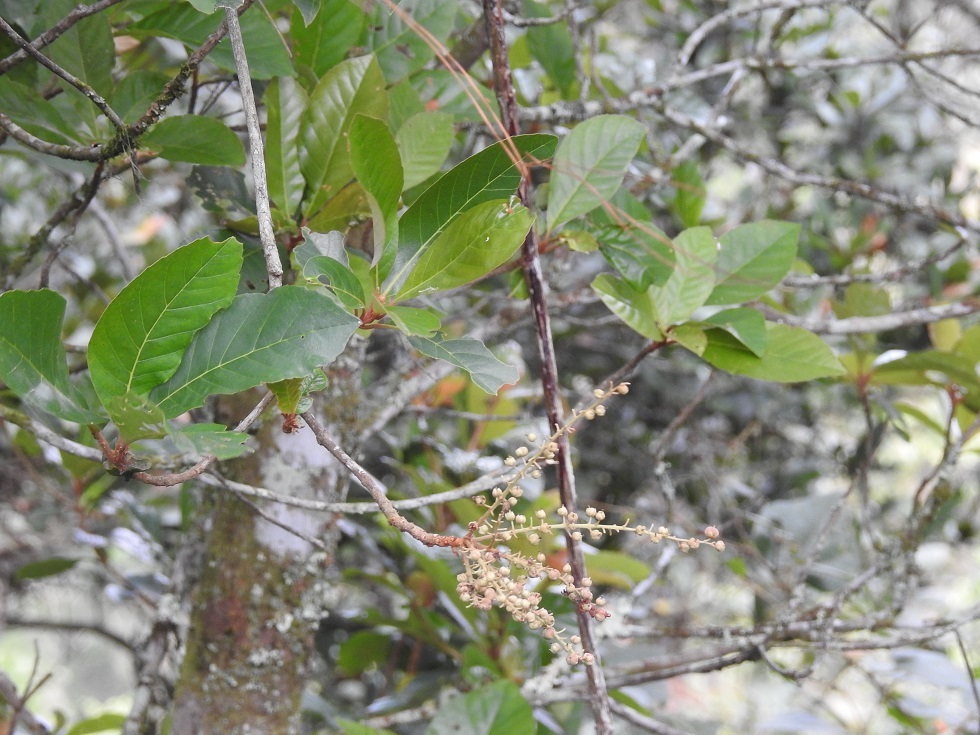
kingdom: Plantae
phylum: Tracheophyta
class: Magnoliopsida
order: Ericales
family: Clethraceae
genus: Clethra
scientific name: Clethra mexicana
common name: Nance macho
